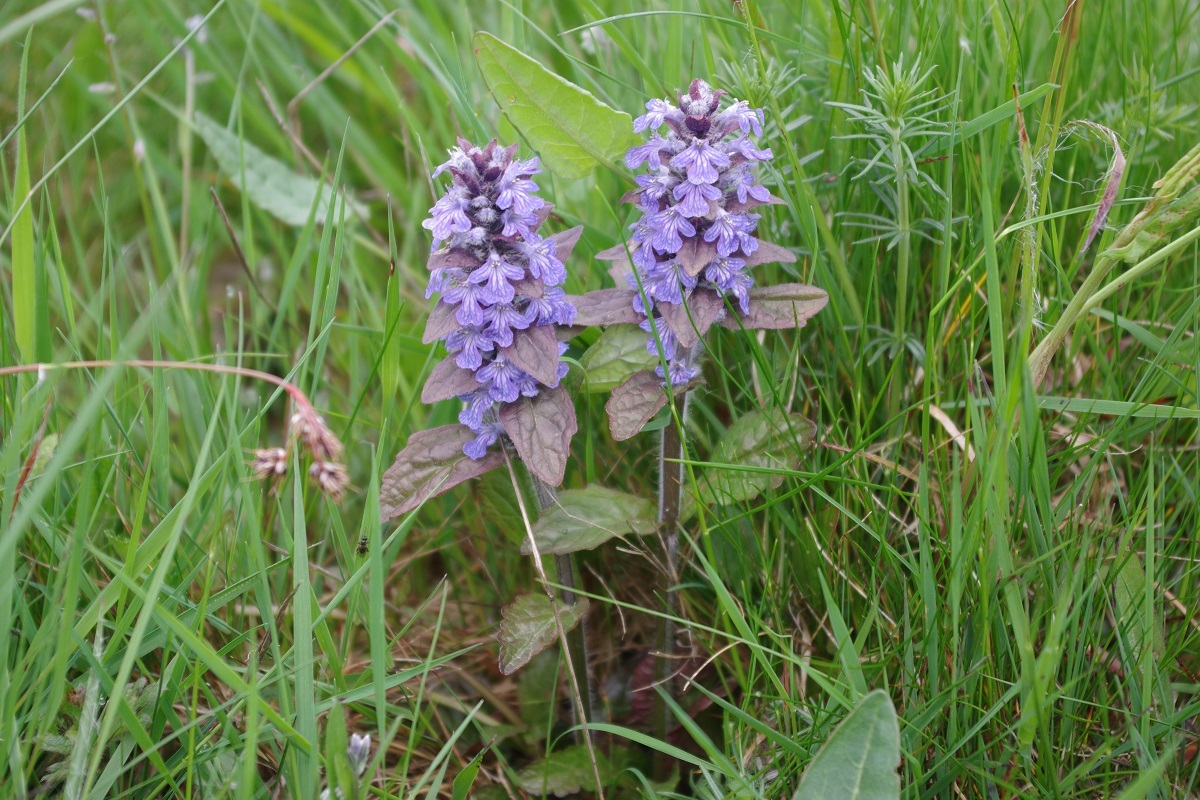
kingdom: Plantae
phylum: Tracheophyta
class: Magnoliopsida
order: Lamiales
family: Lamiaceae
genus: Ajuga
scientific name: Ajuga reptans
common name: Bugle
